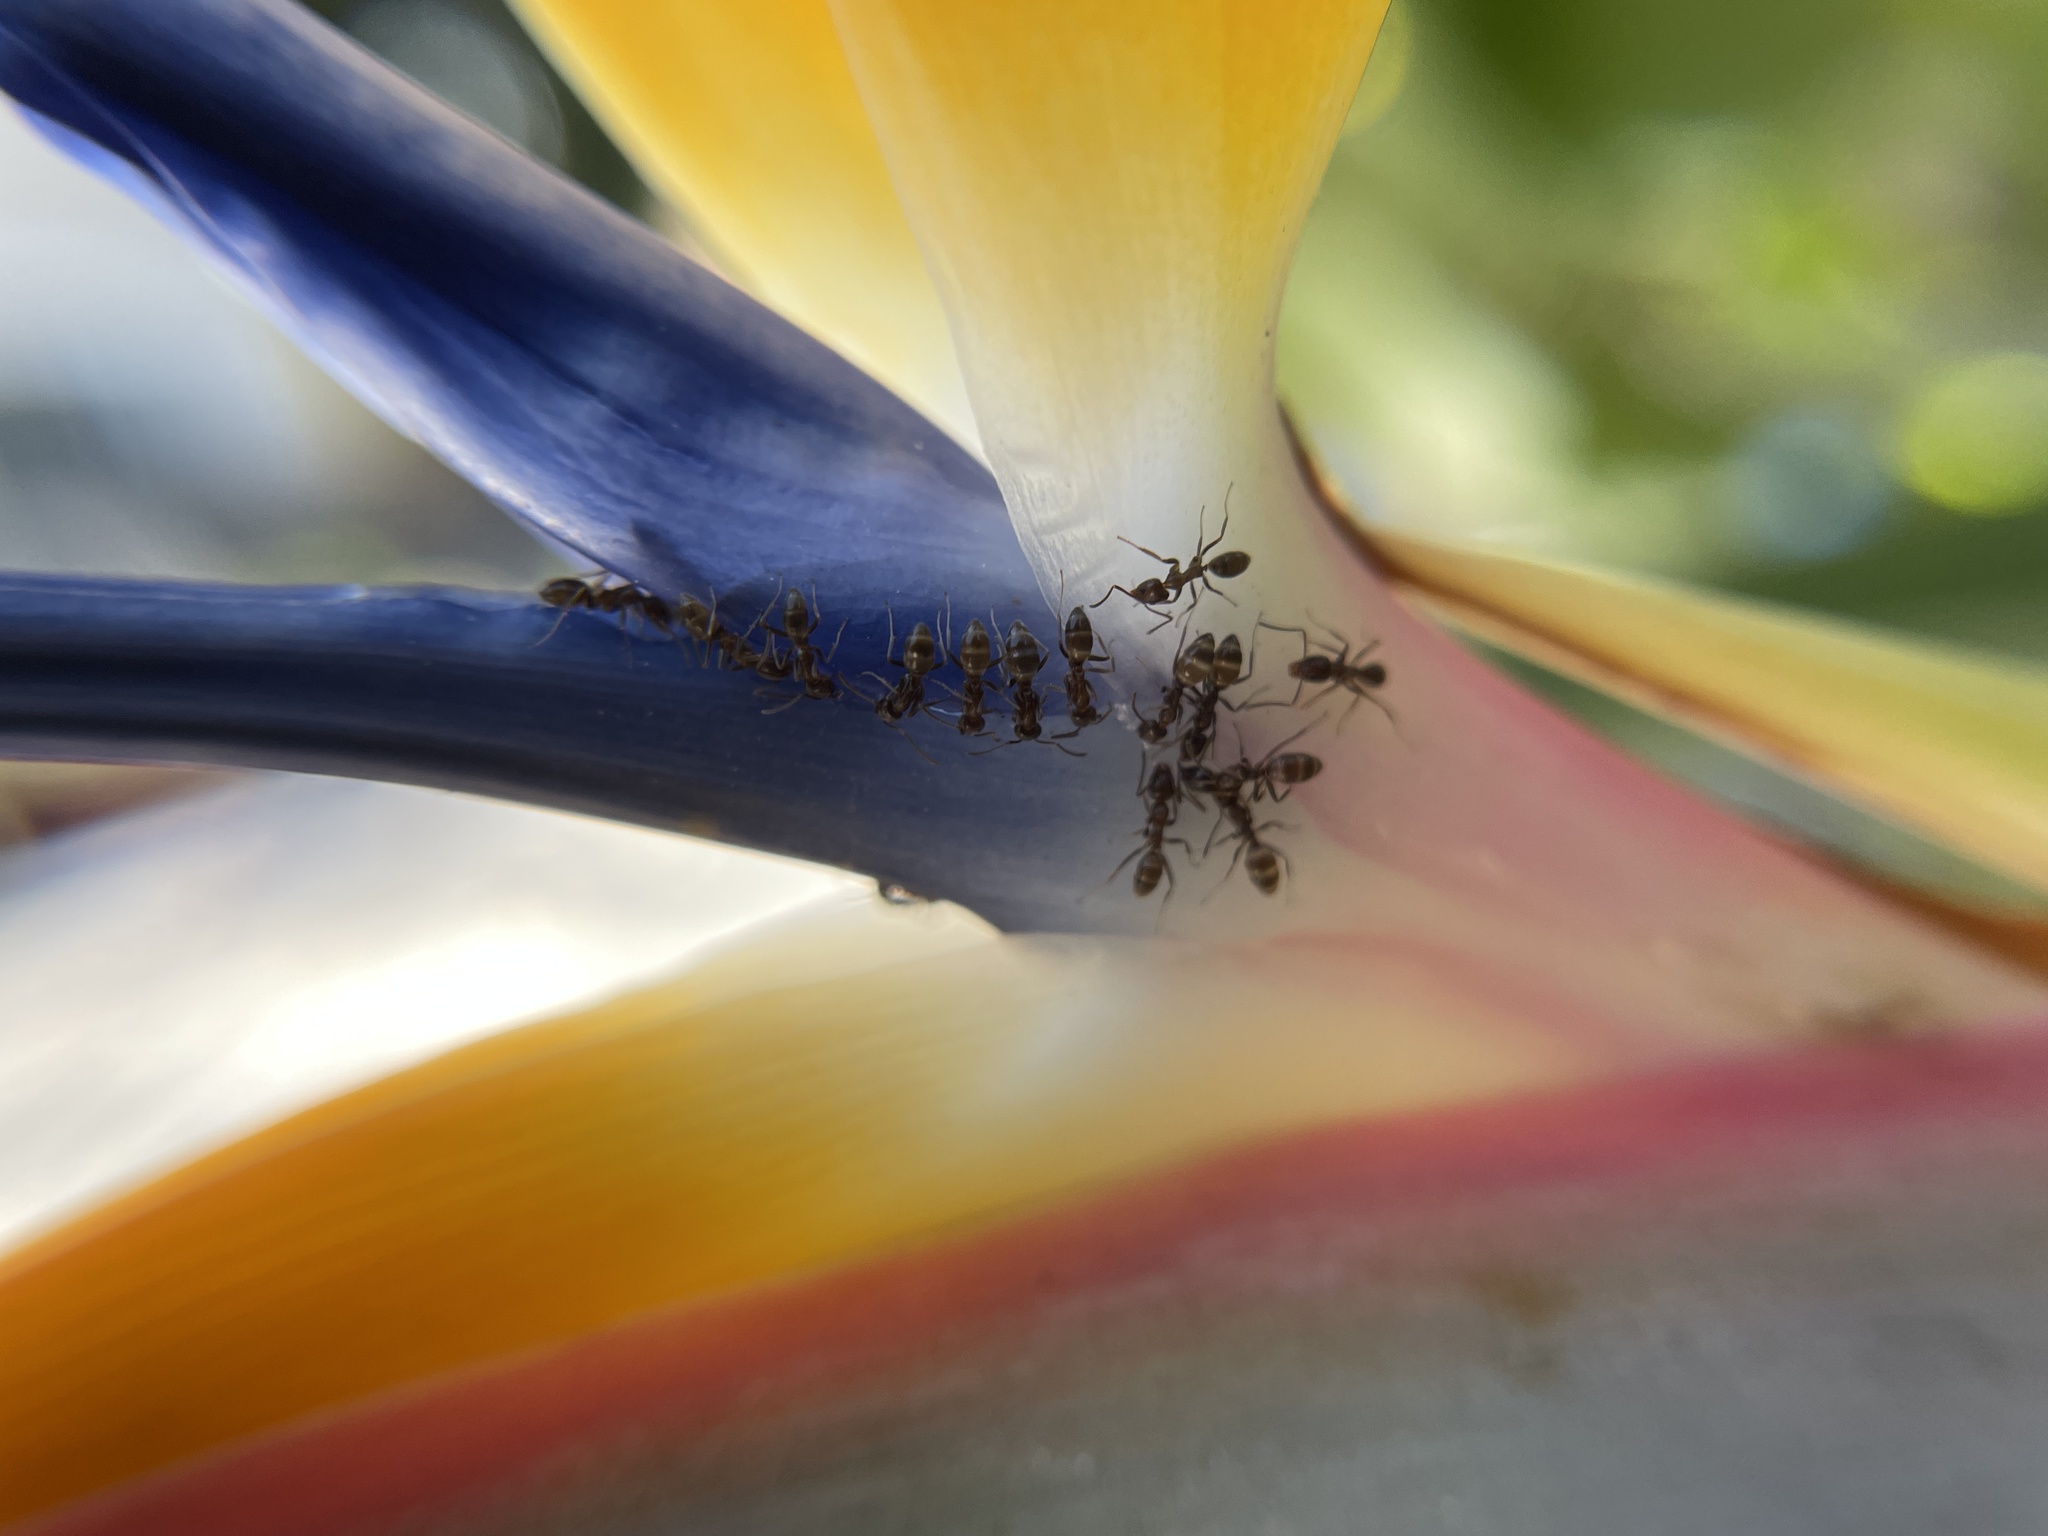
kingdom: Animalia
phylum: Arthropoda
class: Insecta
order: Hymenoptera
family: Formicidae
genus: Linepithema
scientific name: Linepithema humile
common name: Argentine ant
